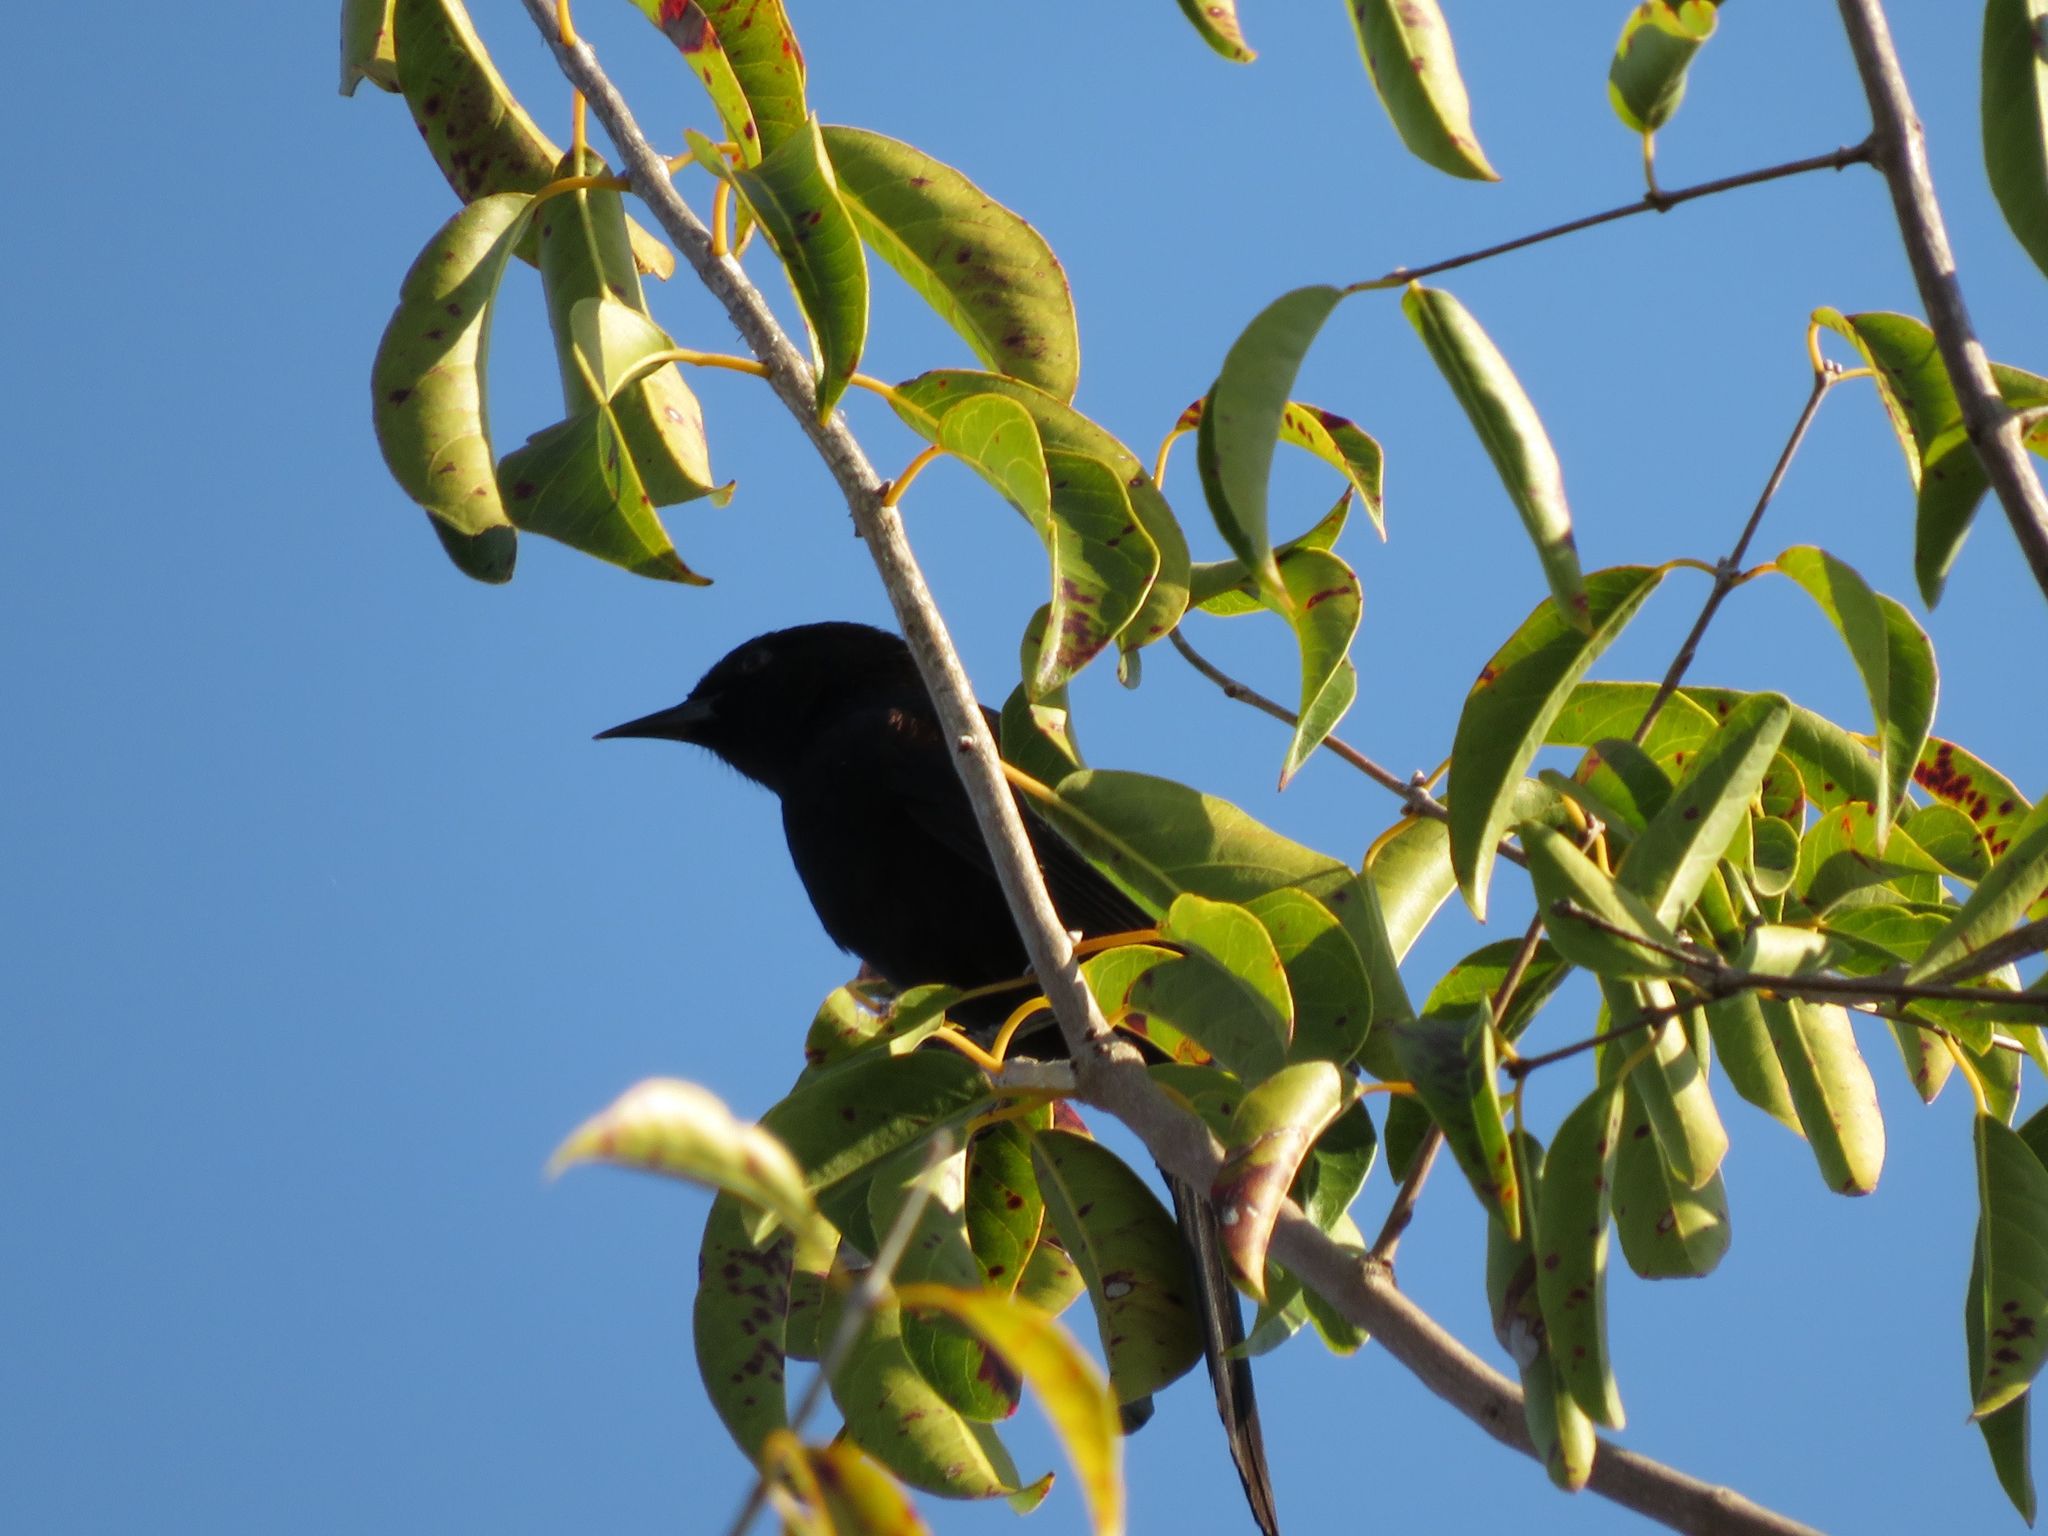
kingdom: Animalia
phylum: Chordata
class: Aves
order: Passeriformes
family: Icteridae
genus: Icterus
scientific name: Icterus cayanensis
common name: Epaulet oriole
